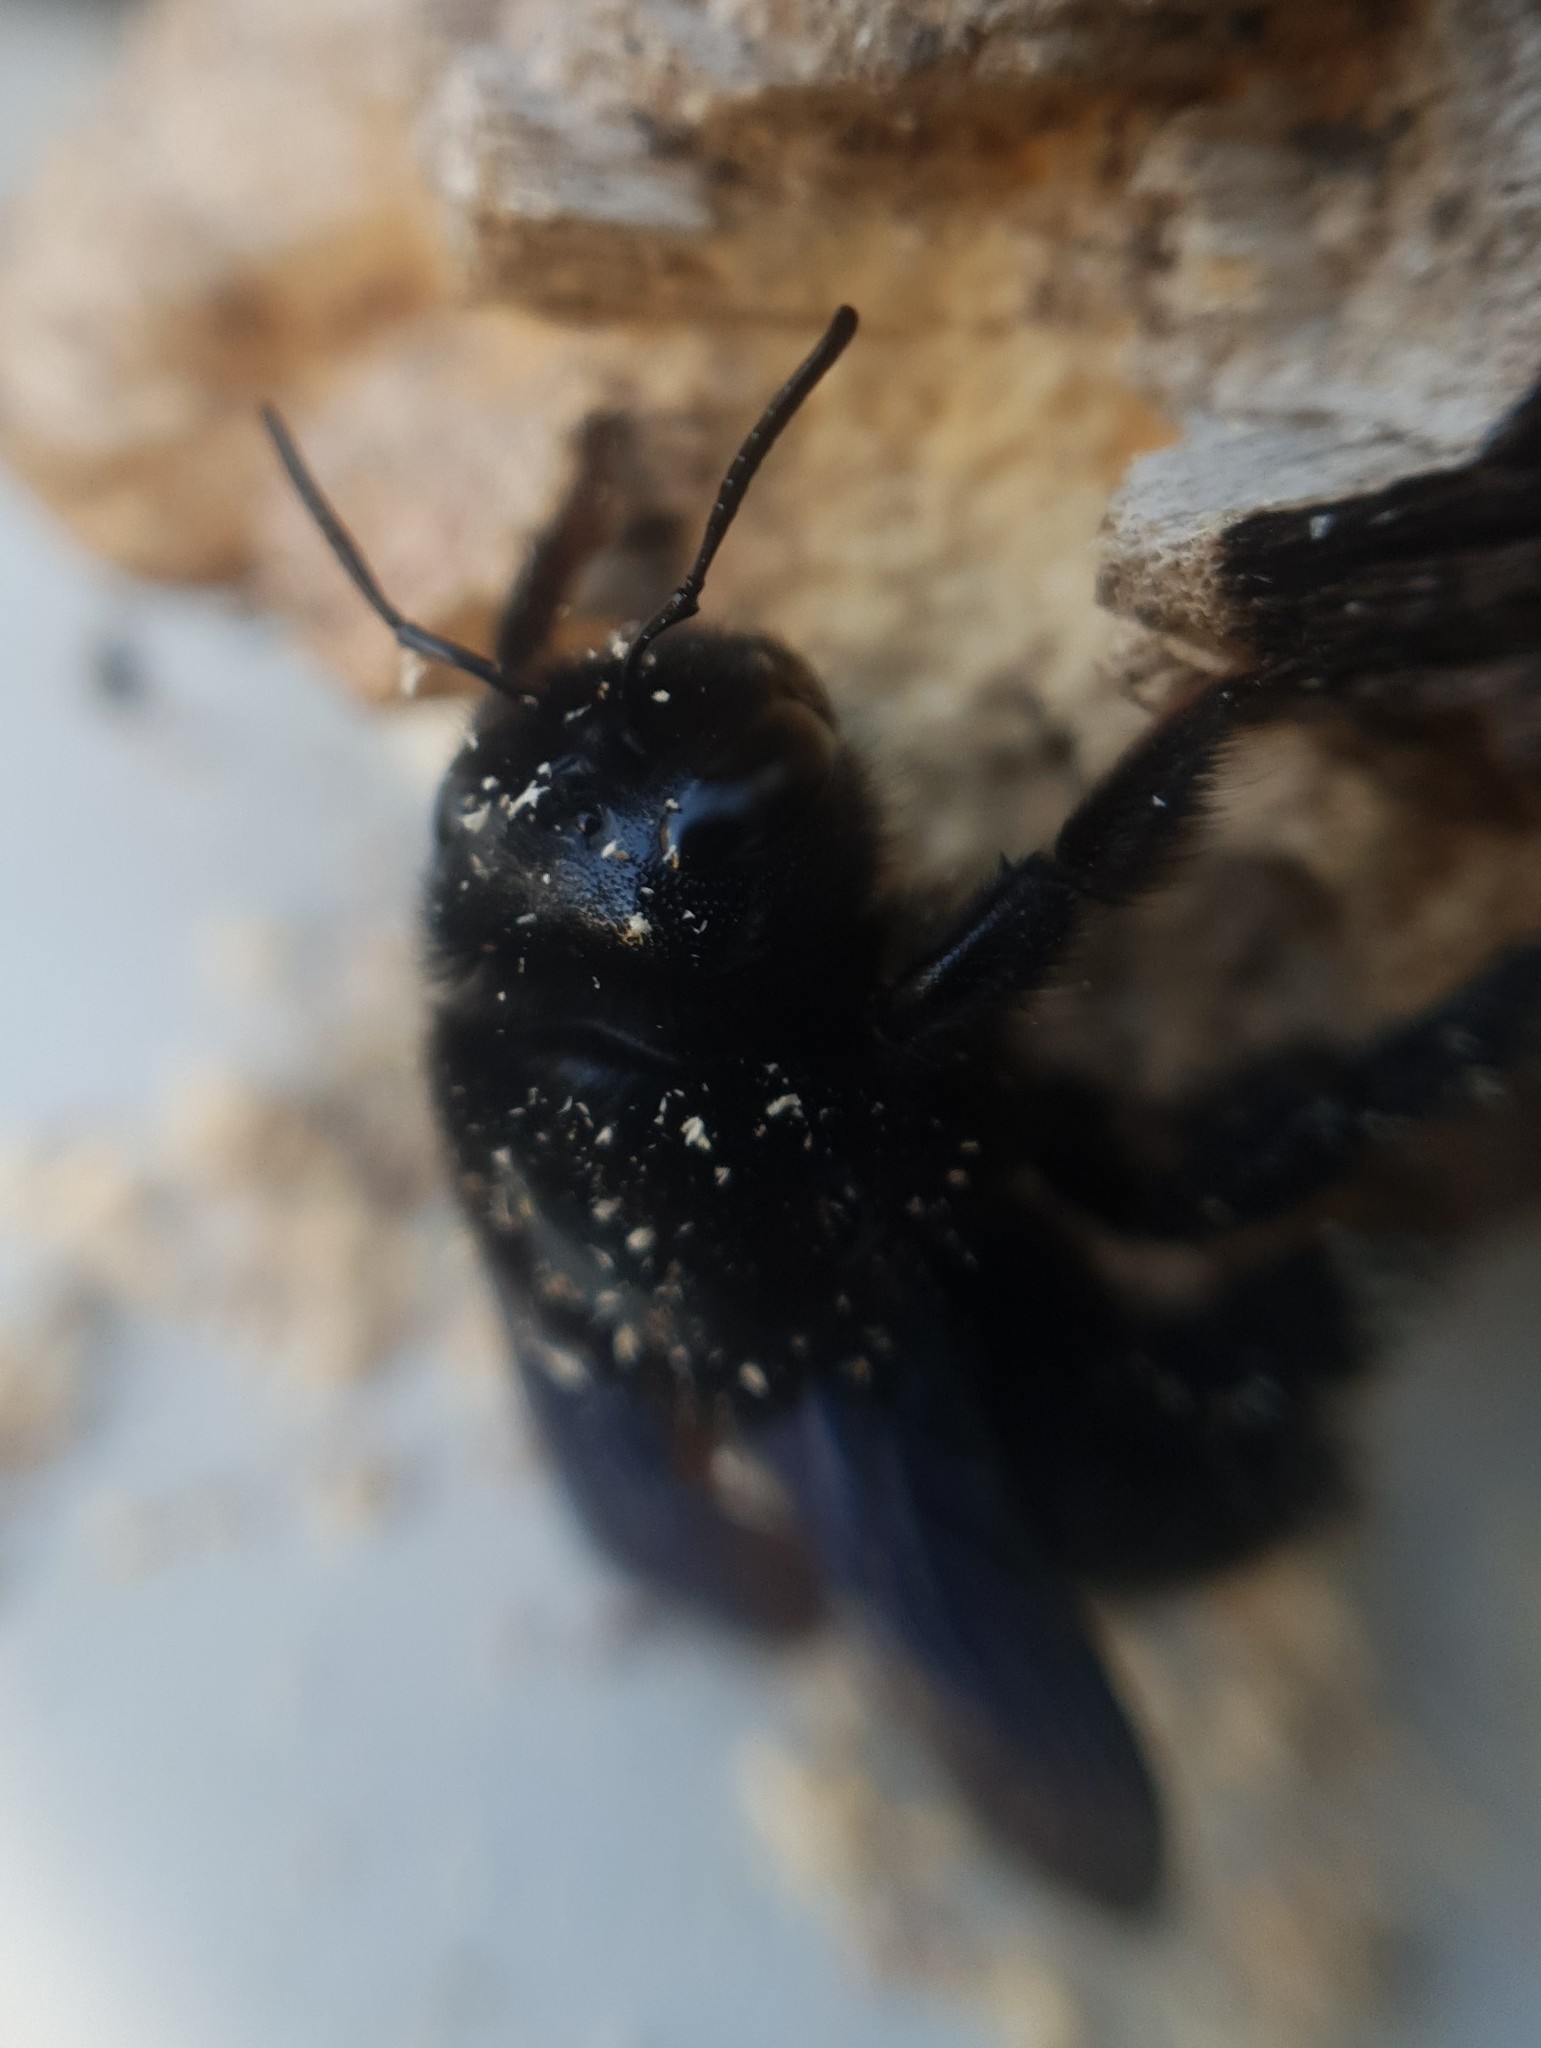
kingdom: Animalia
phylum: Arthropoda
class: Insecta
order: Hymenoptera
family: Apidae
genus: Xylocopa
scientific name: Xylocopa violacea
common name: Violet carpenter bee
